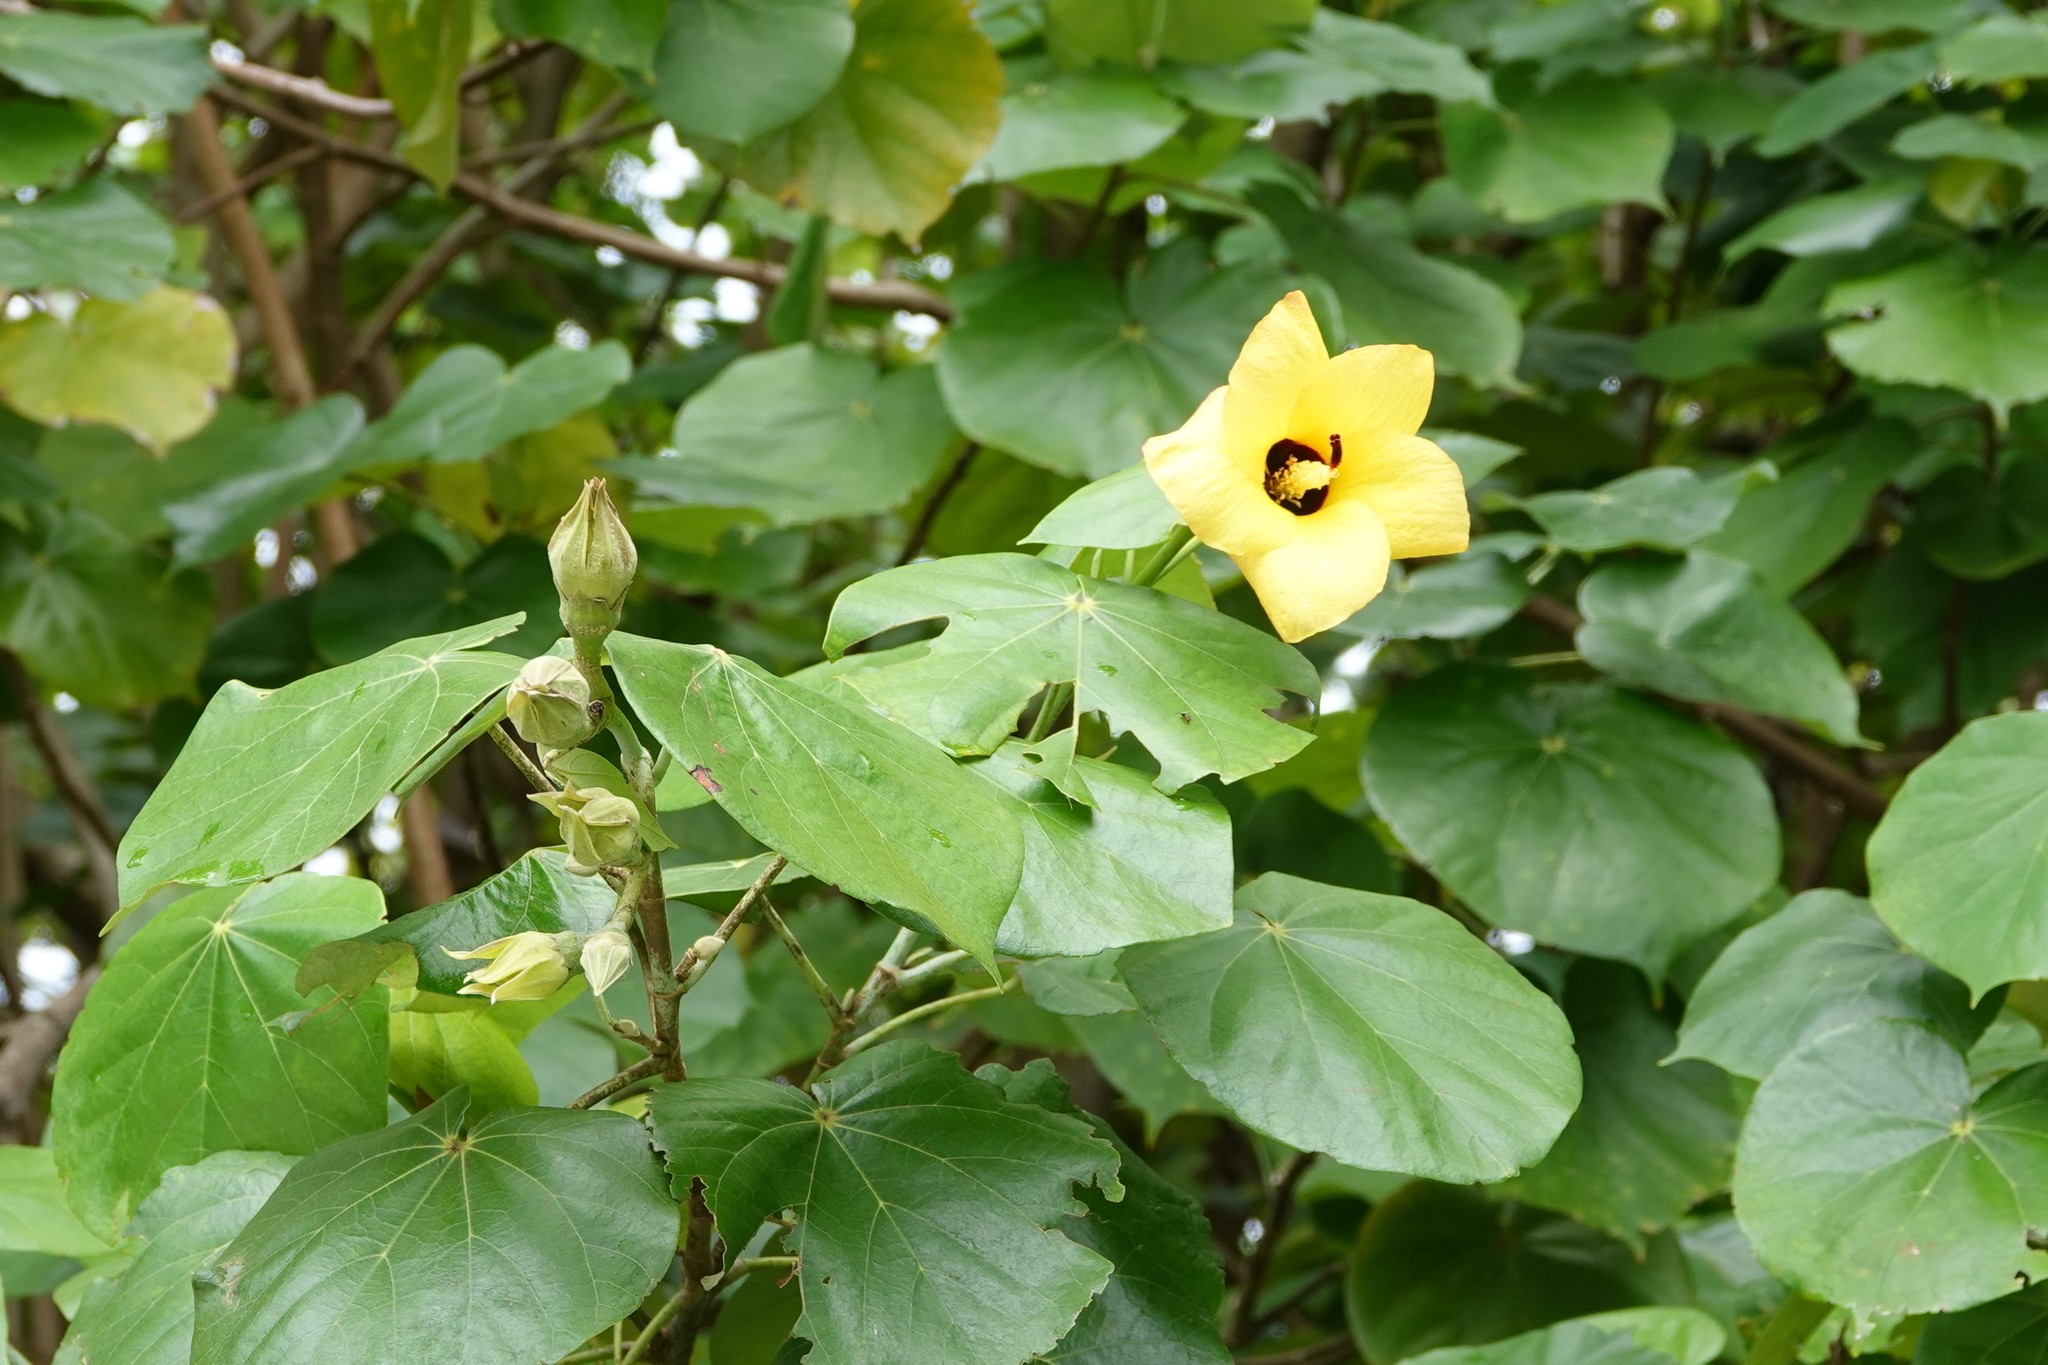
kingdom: Plantae
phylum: Tracheophyta
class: Magnoliopsida
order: Malvales
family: Malvaceae
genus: Talipariti
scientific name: Talipariti tiliaceum
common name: Sea hibiscus
